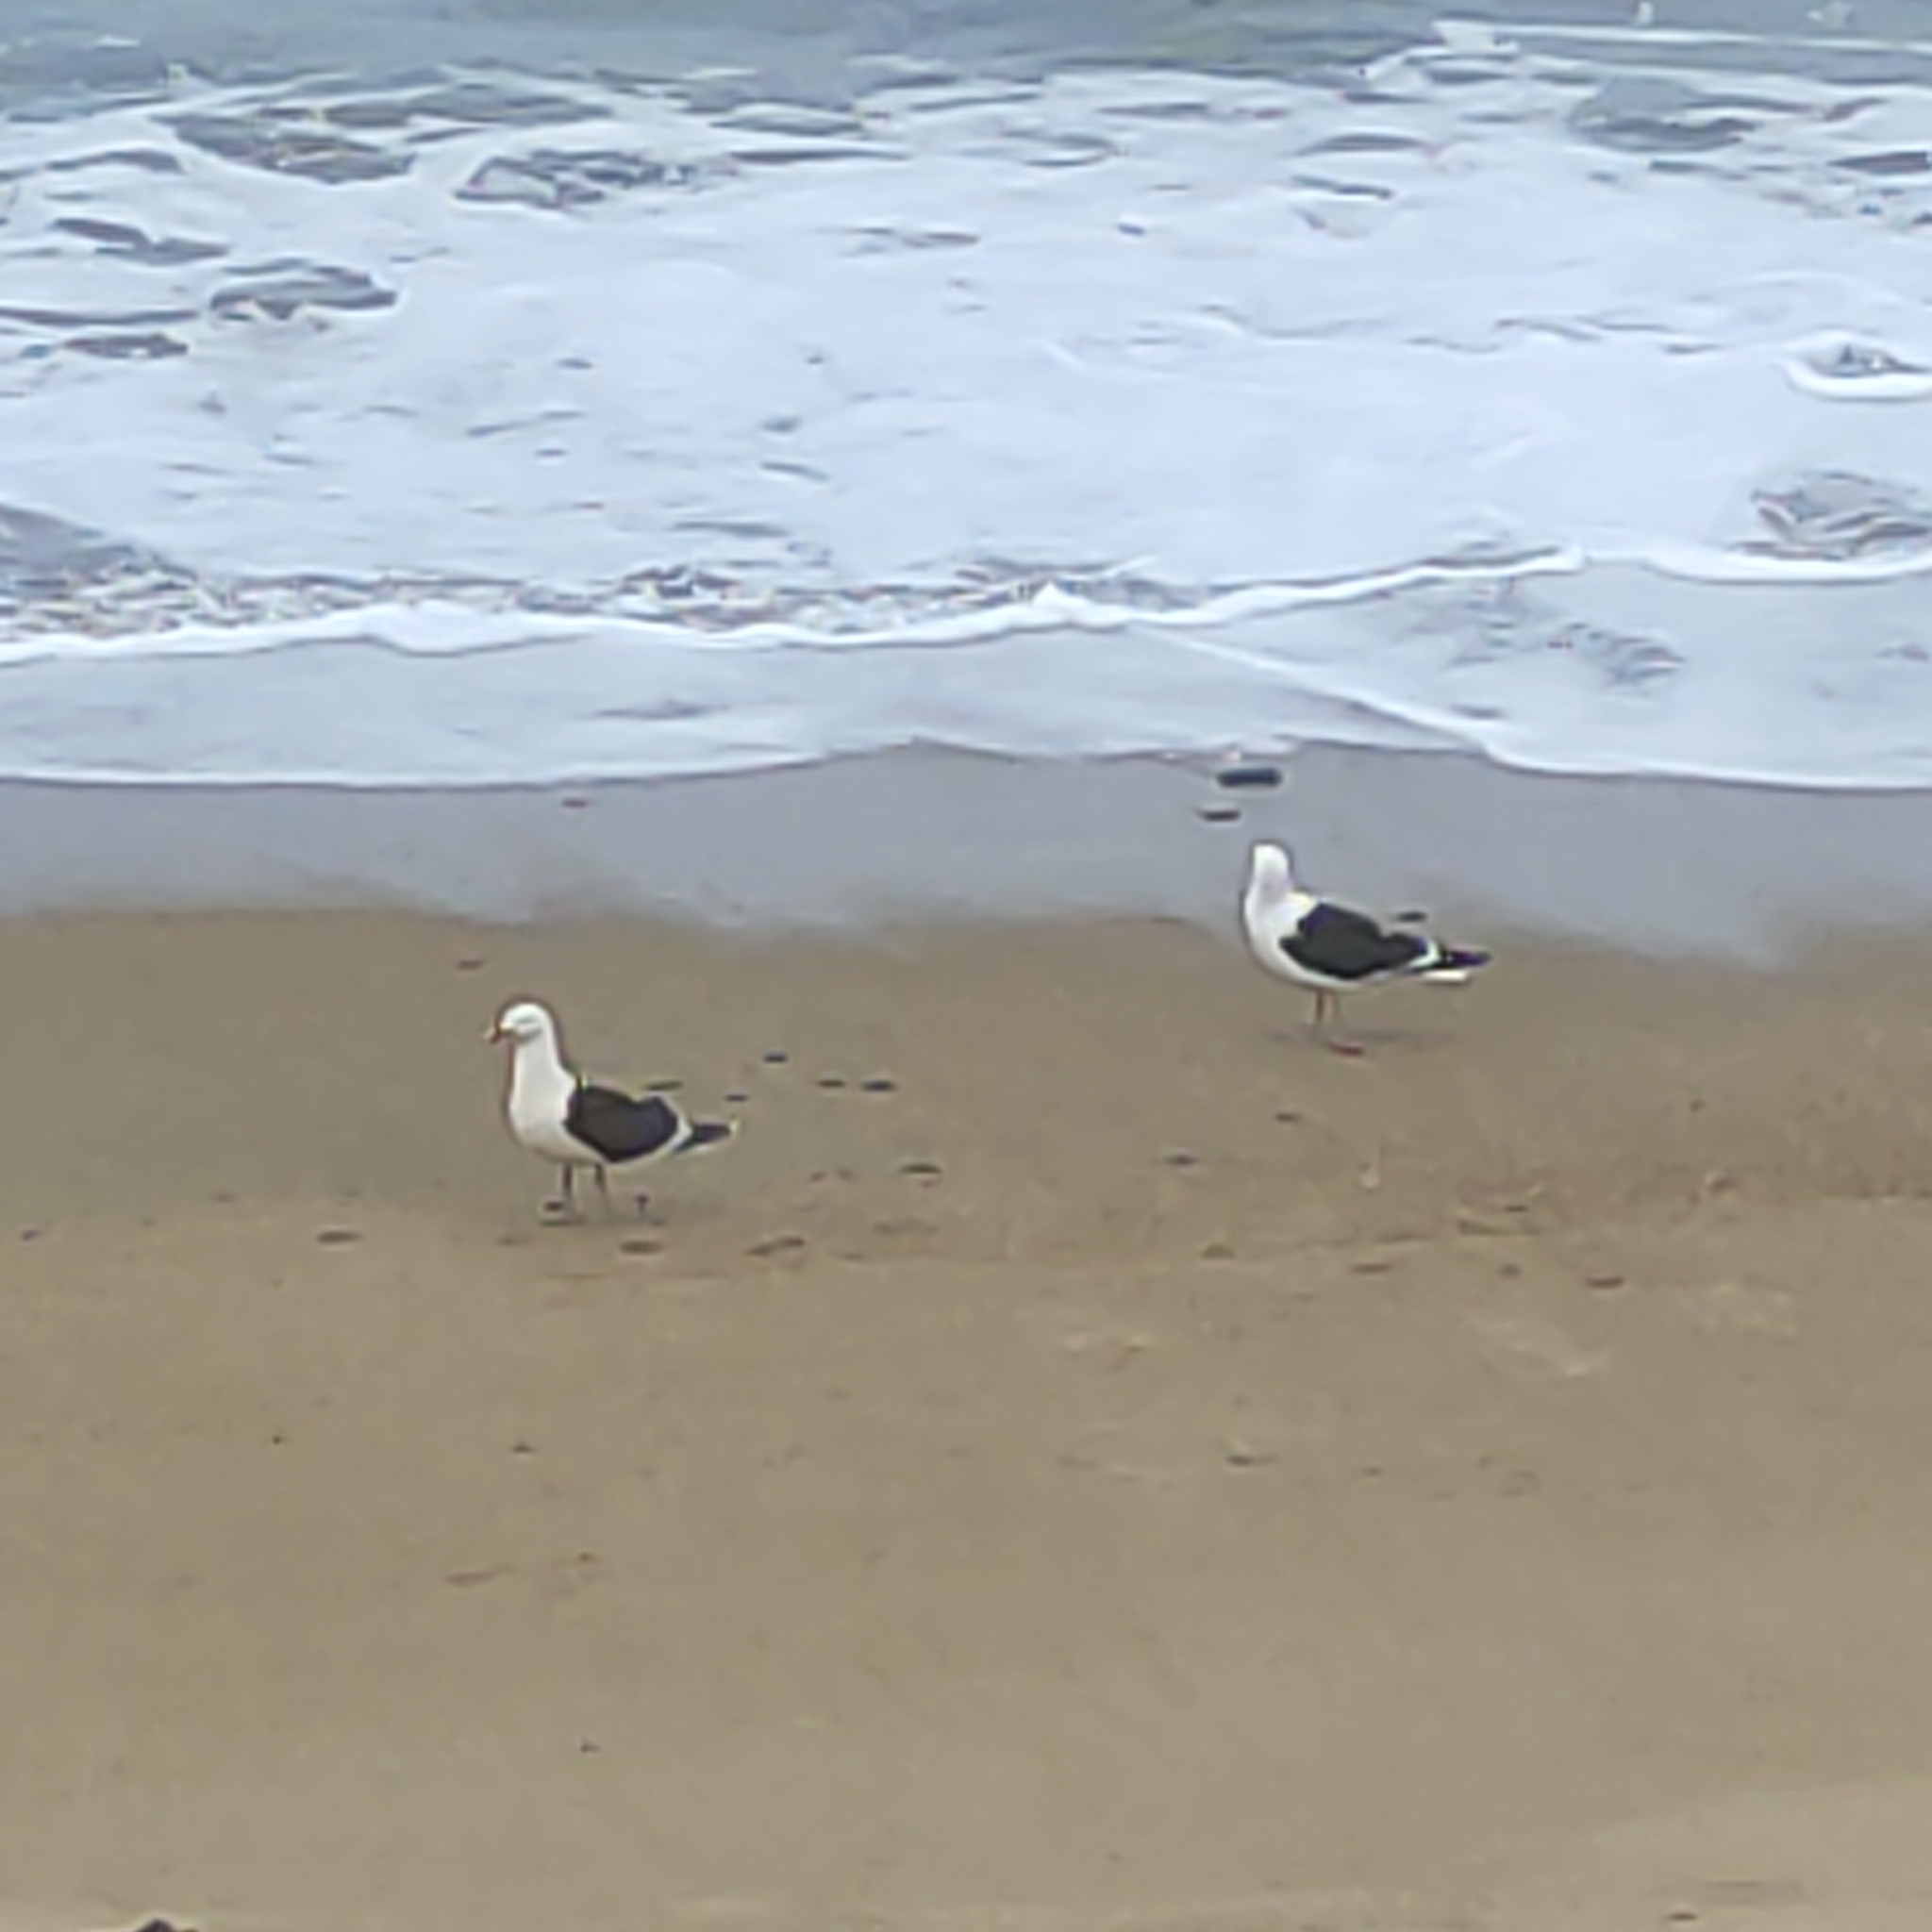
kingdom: Animalia
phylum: Chordata
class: Aves
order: Charadriiformes
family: Laridae
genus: Larus
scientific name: Larus dominicanus
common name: Kelp gull
